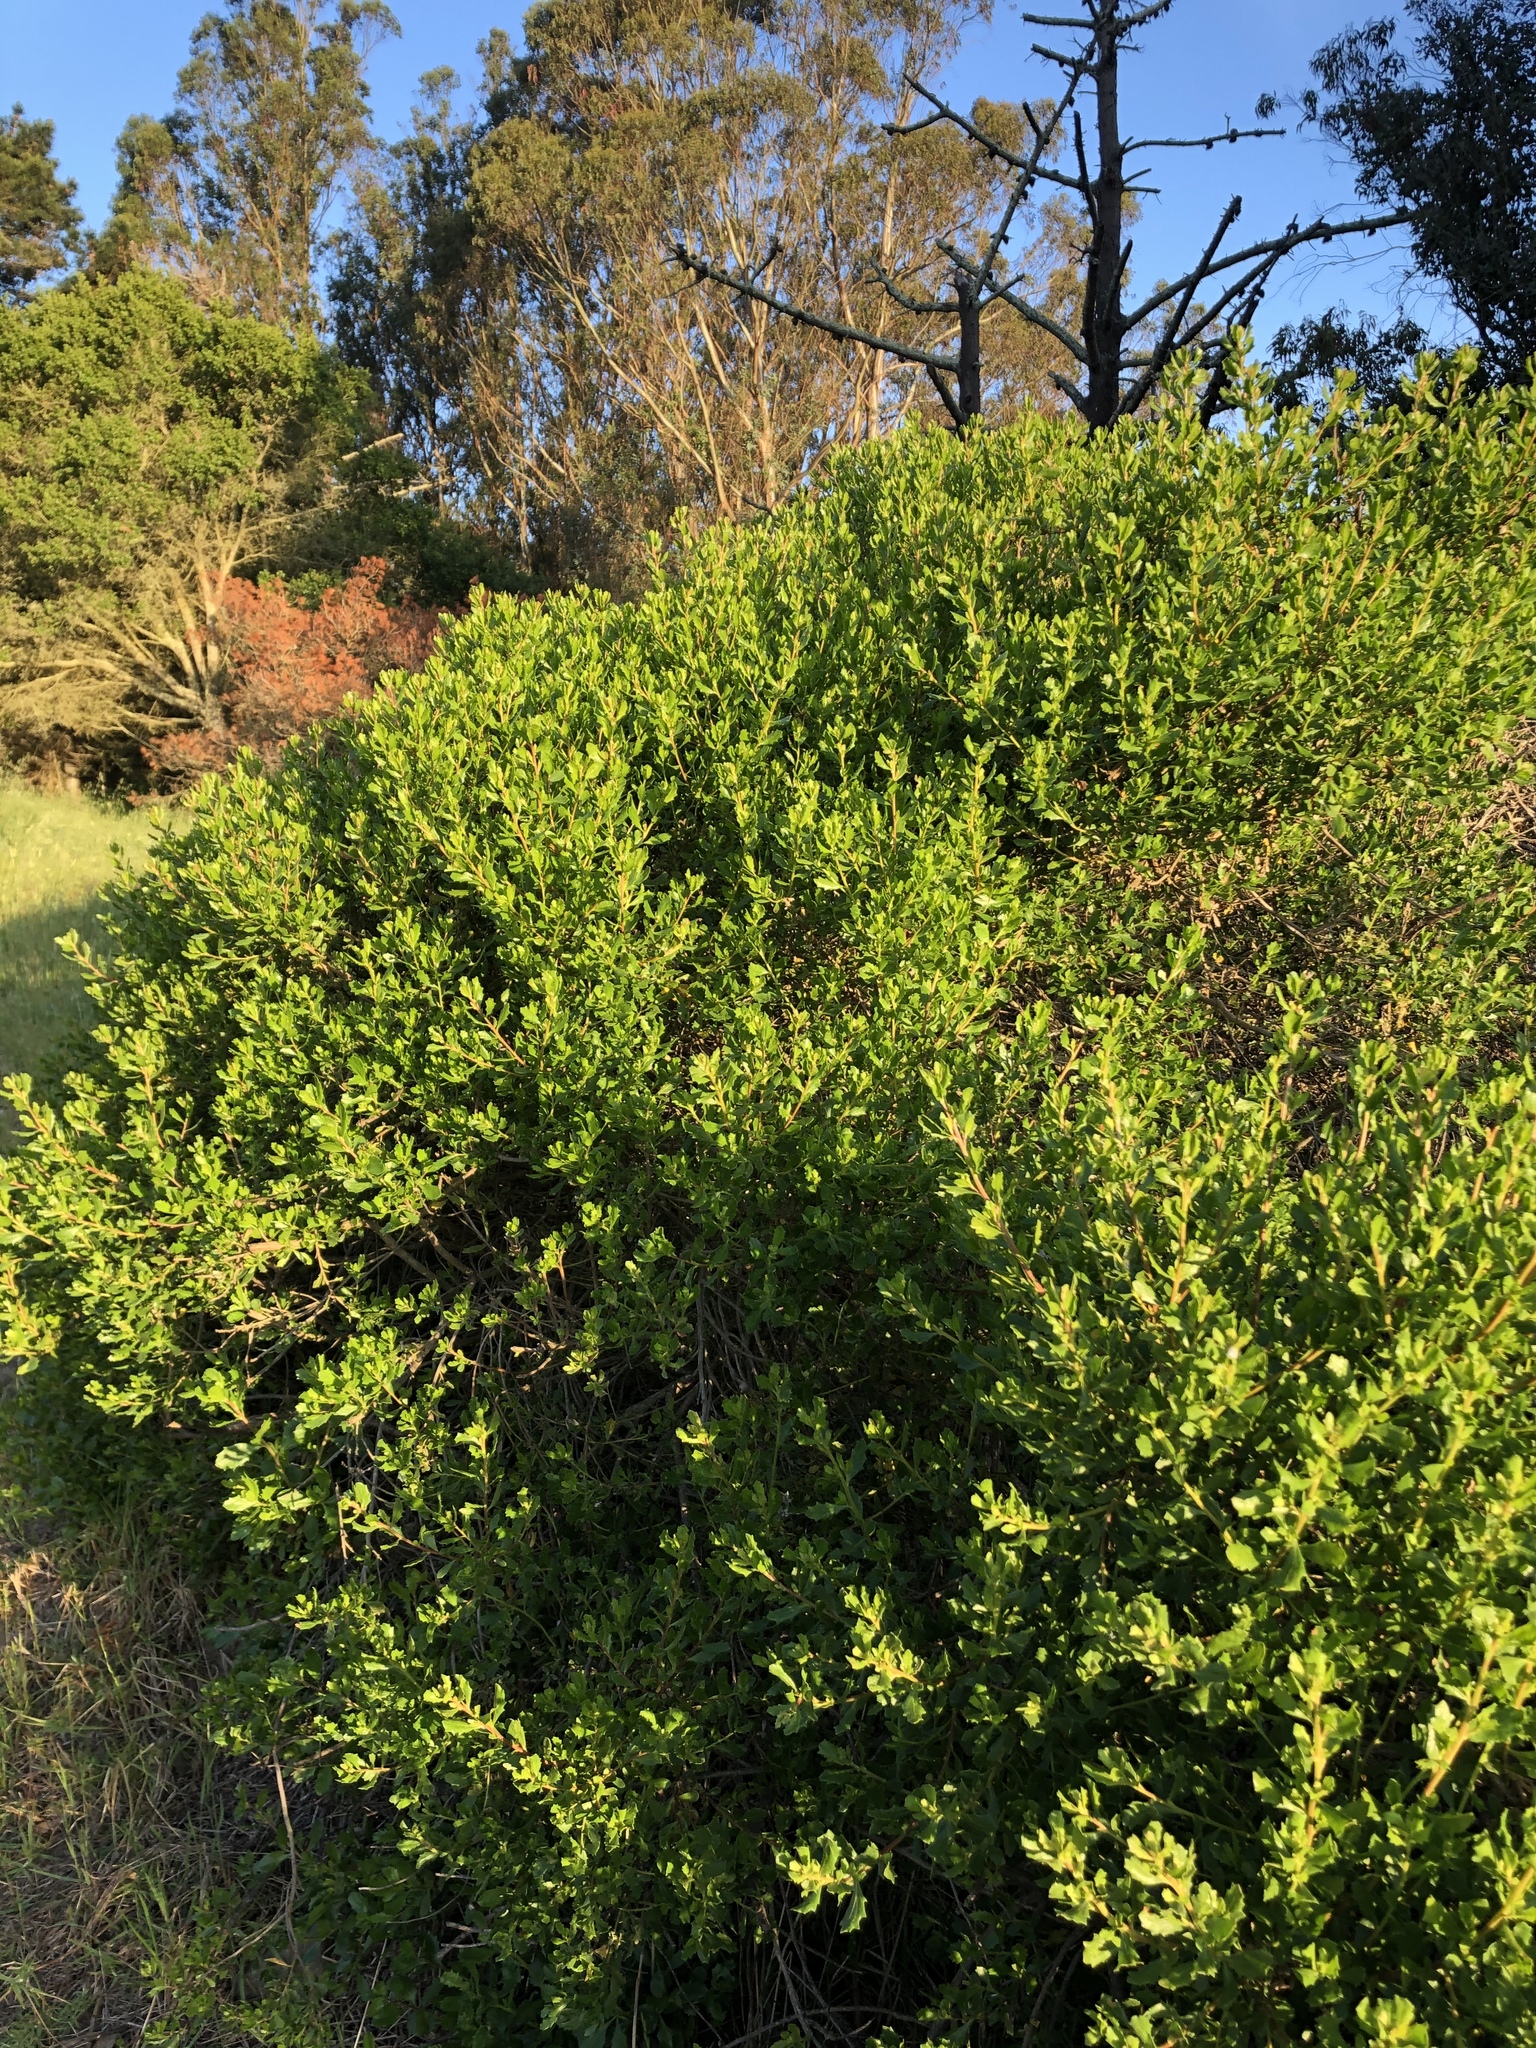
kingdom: Plantae
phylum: Tracheophyta
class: Magnoliopsida
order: Asterales
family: Asteraceae
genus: Baccharis
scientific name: Baccharis pilularis
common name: Coyotebrush
